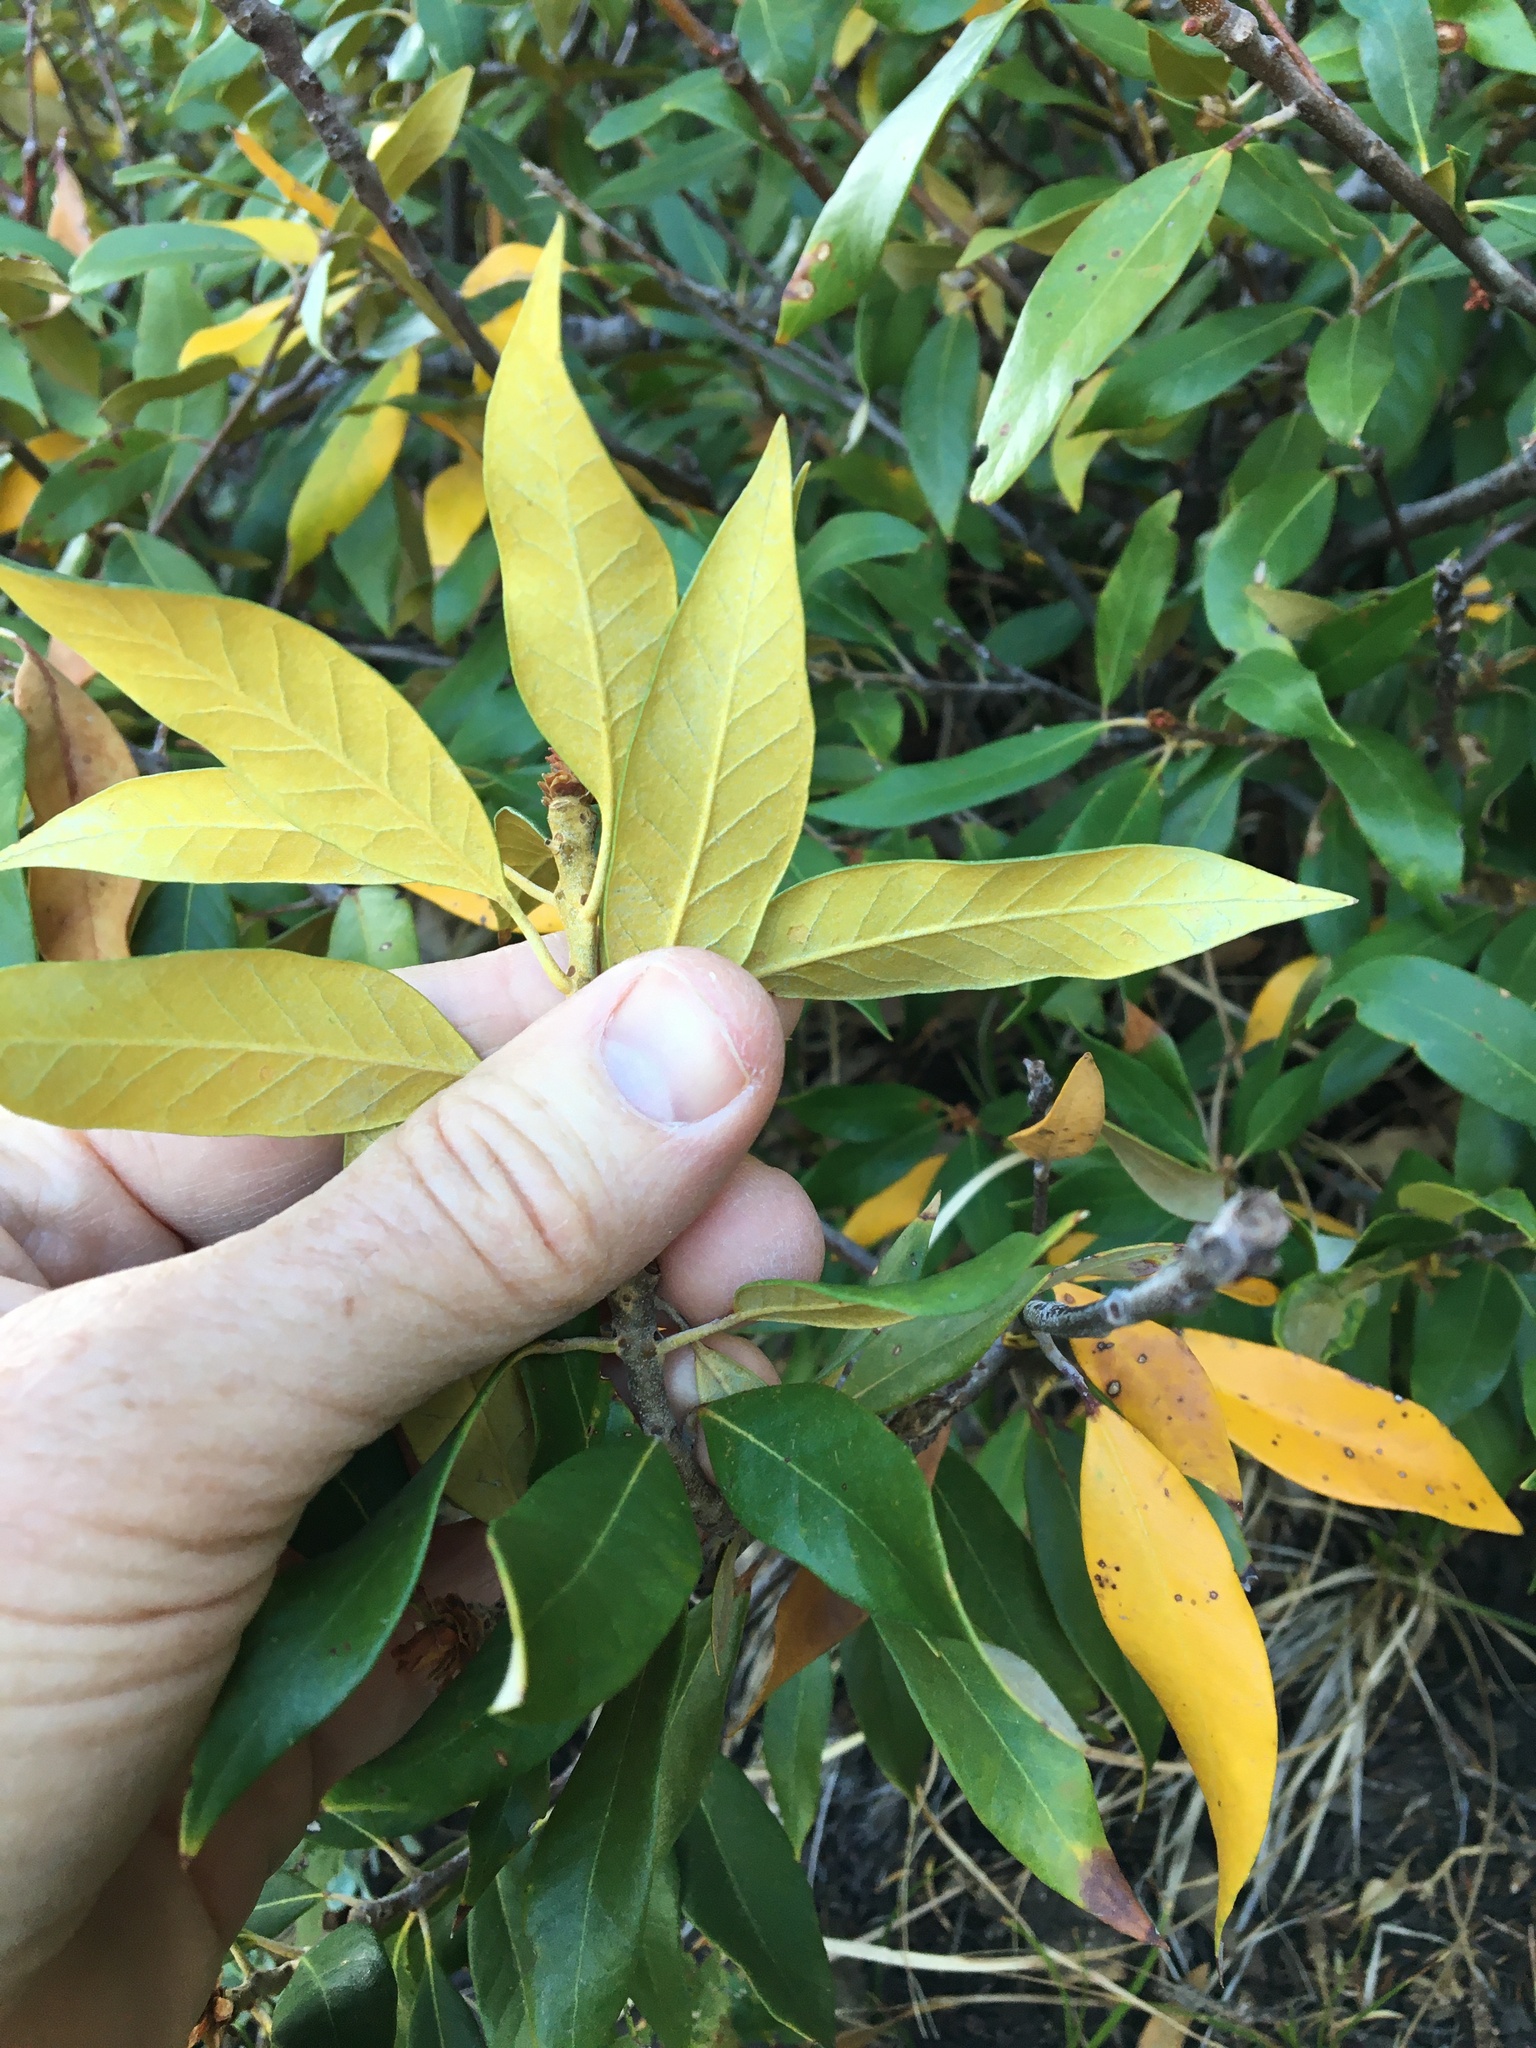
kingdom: Plantae
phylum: Tracheophyta
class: Magnoliopsida
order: Fagales
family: Fagaceae
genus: Chrysolepis
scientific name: Chrysolepis chrysophylla
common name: Giant chinquapin
